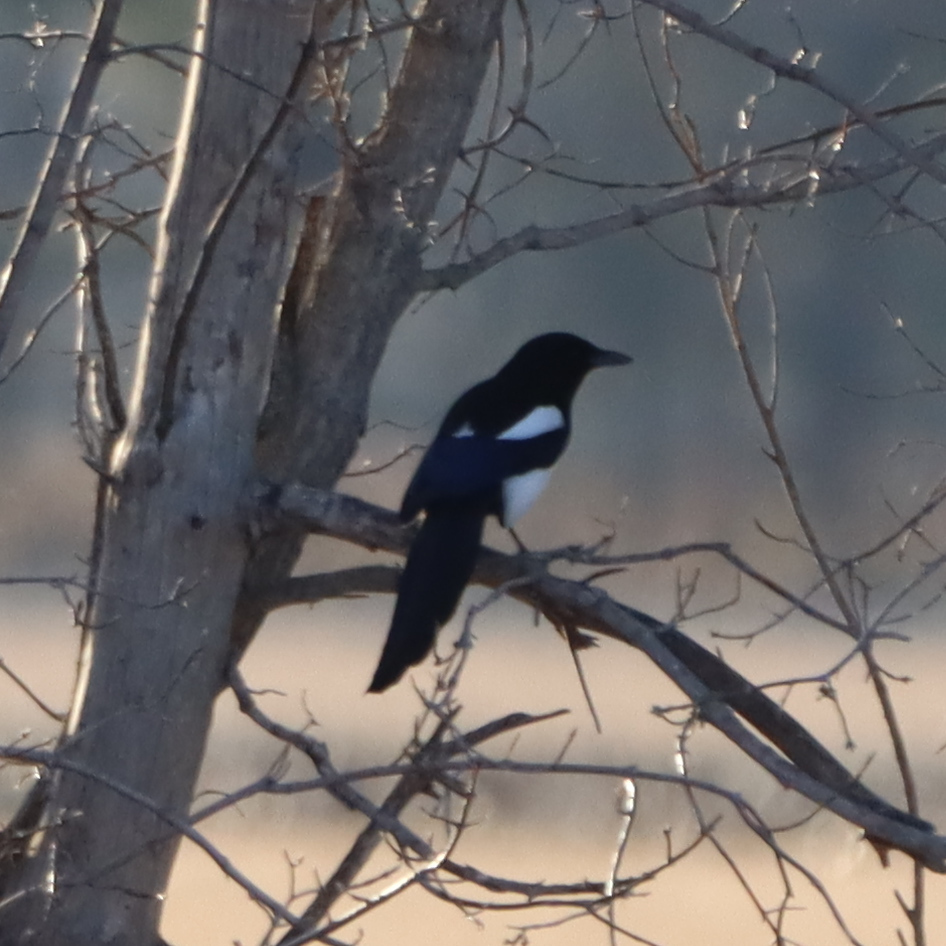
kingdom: Animalia
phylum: Chordata
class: Aves
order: Passeriformes
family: Corvidae
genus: Pica
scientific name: Pica hudsonia
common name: Black-billed magpie
